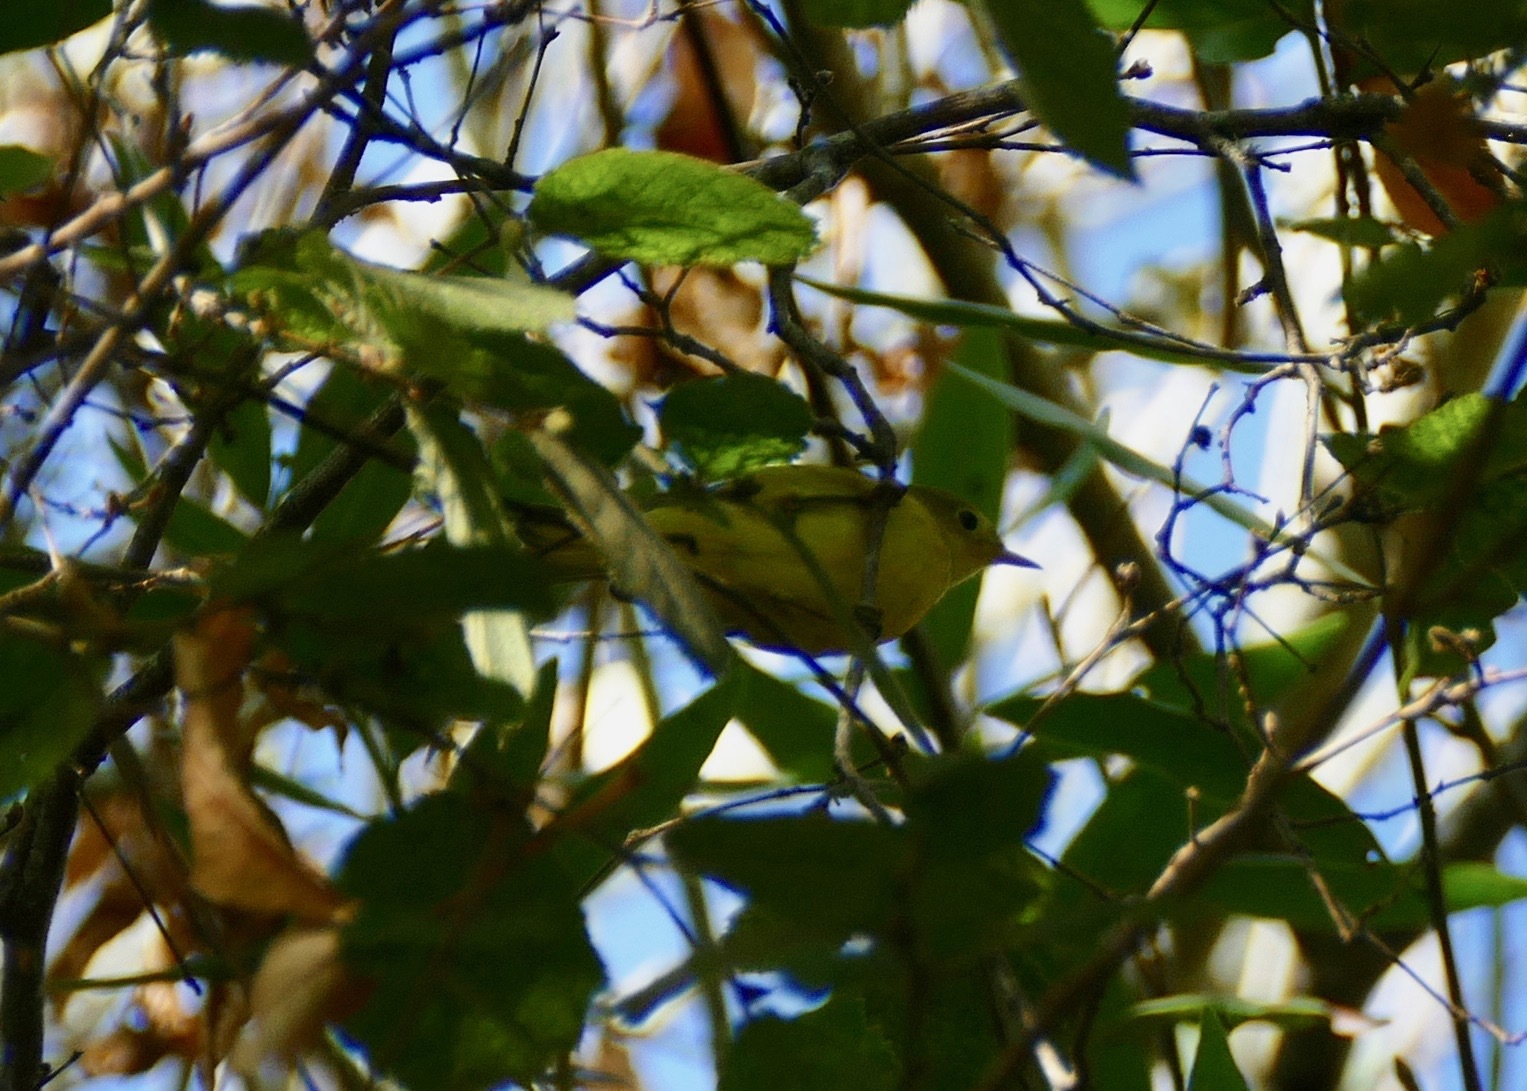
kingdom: Animalia
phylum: Chordata
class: Aves
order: Passeriformes
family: Parulidae
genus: Leiothlypis
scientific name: Leiothlypis celata
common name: Orange-crowned warbler
